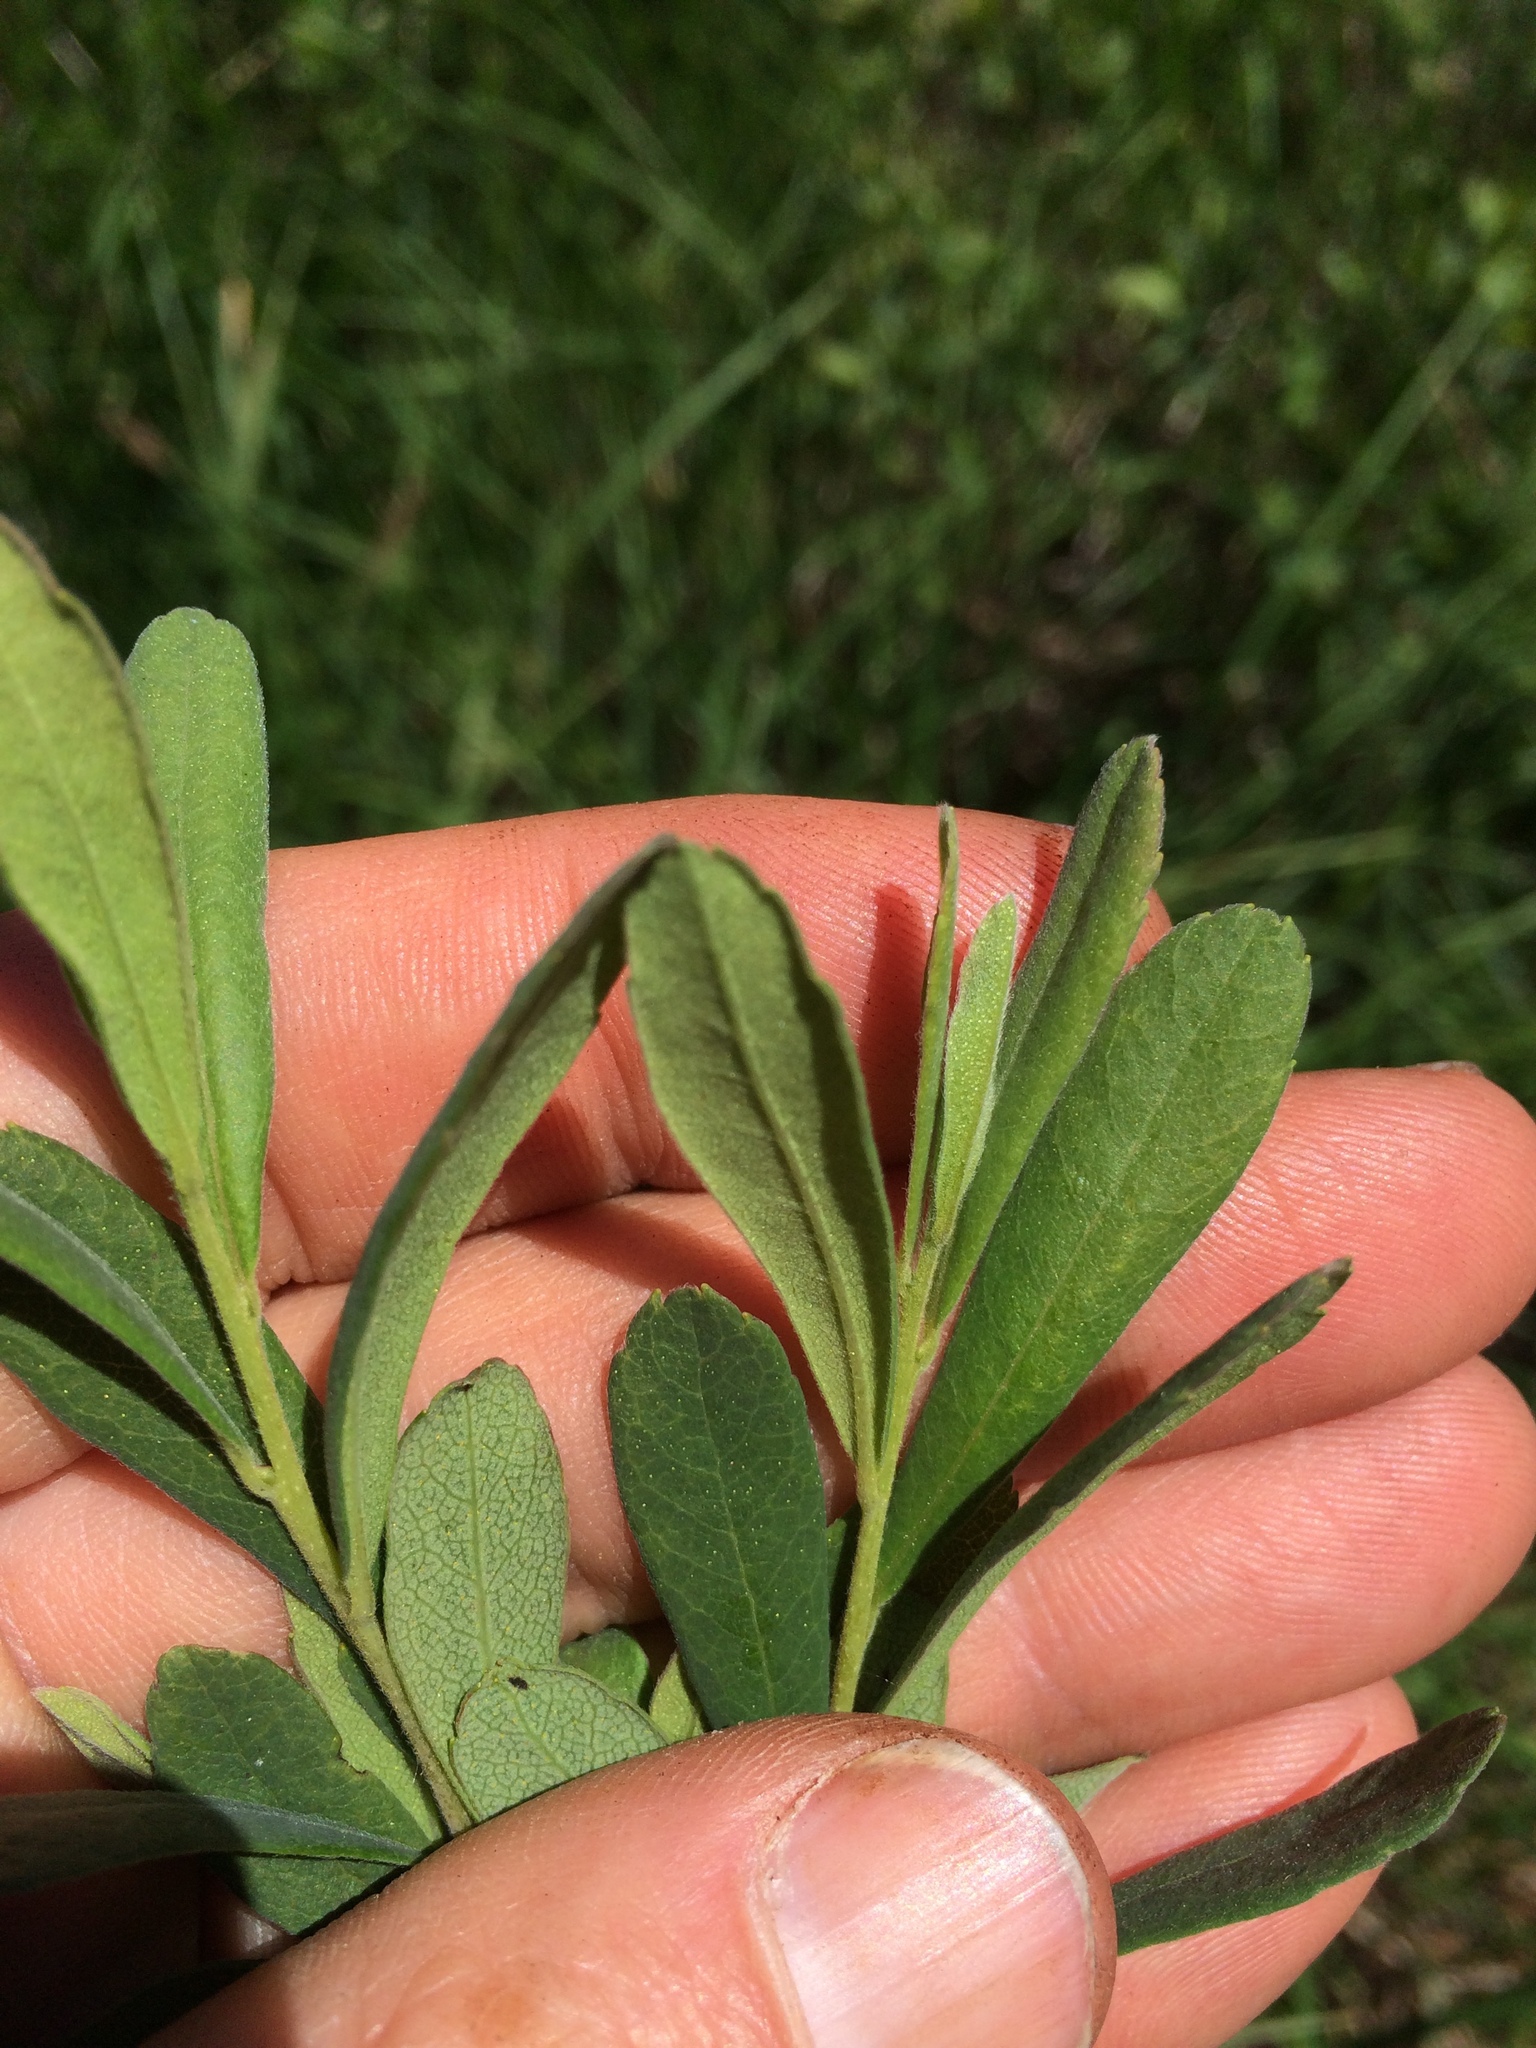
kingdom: Plantae
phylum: Tracheophyta
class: Magnoliopsida
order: Fagales
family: Myricaceae
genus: Myrica
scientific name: Myrica gale
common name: Sweet gale
